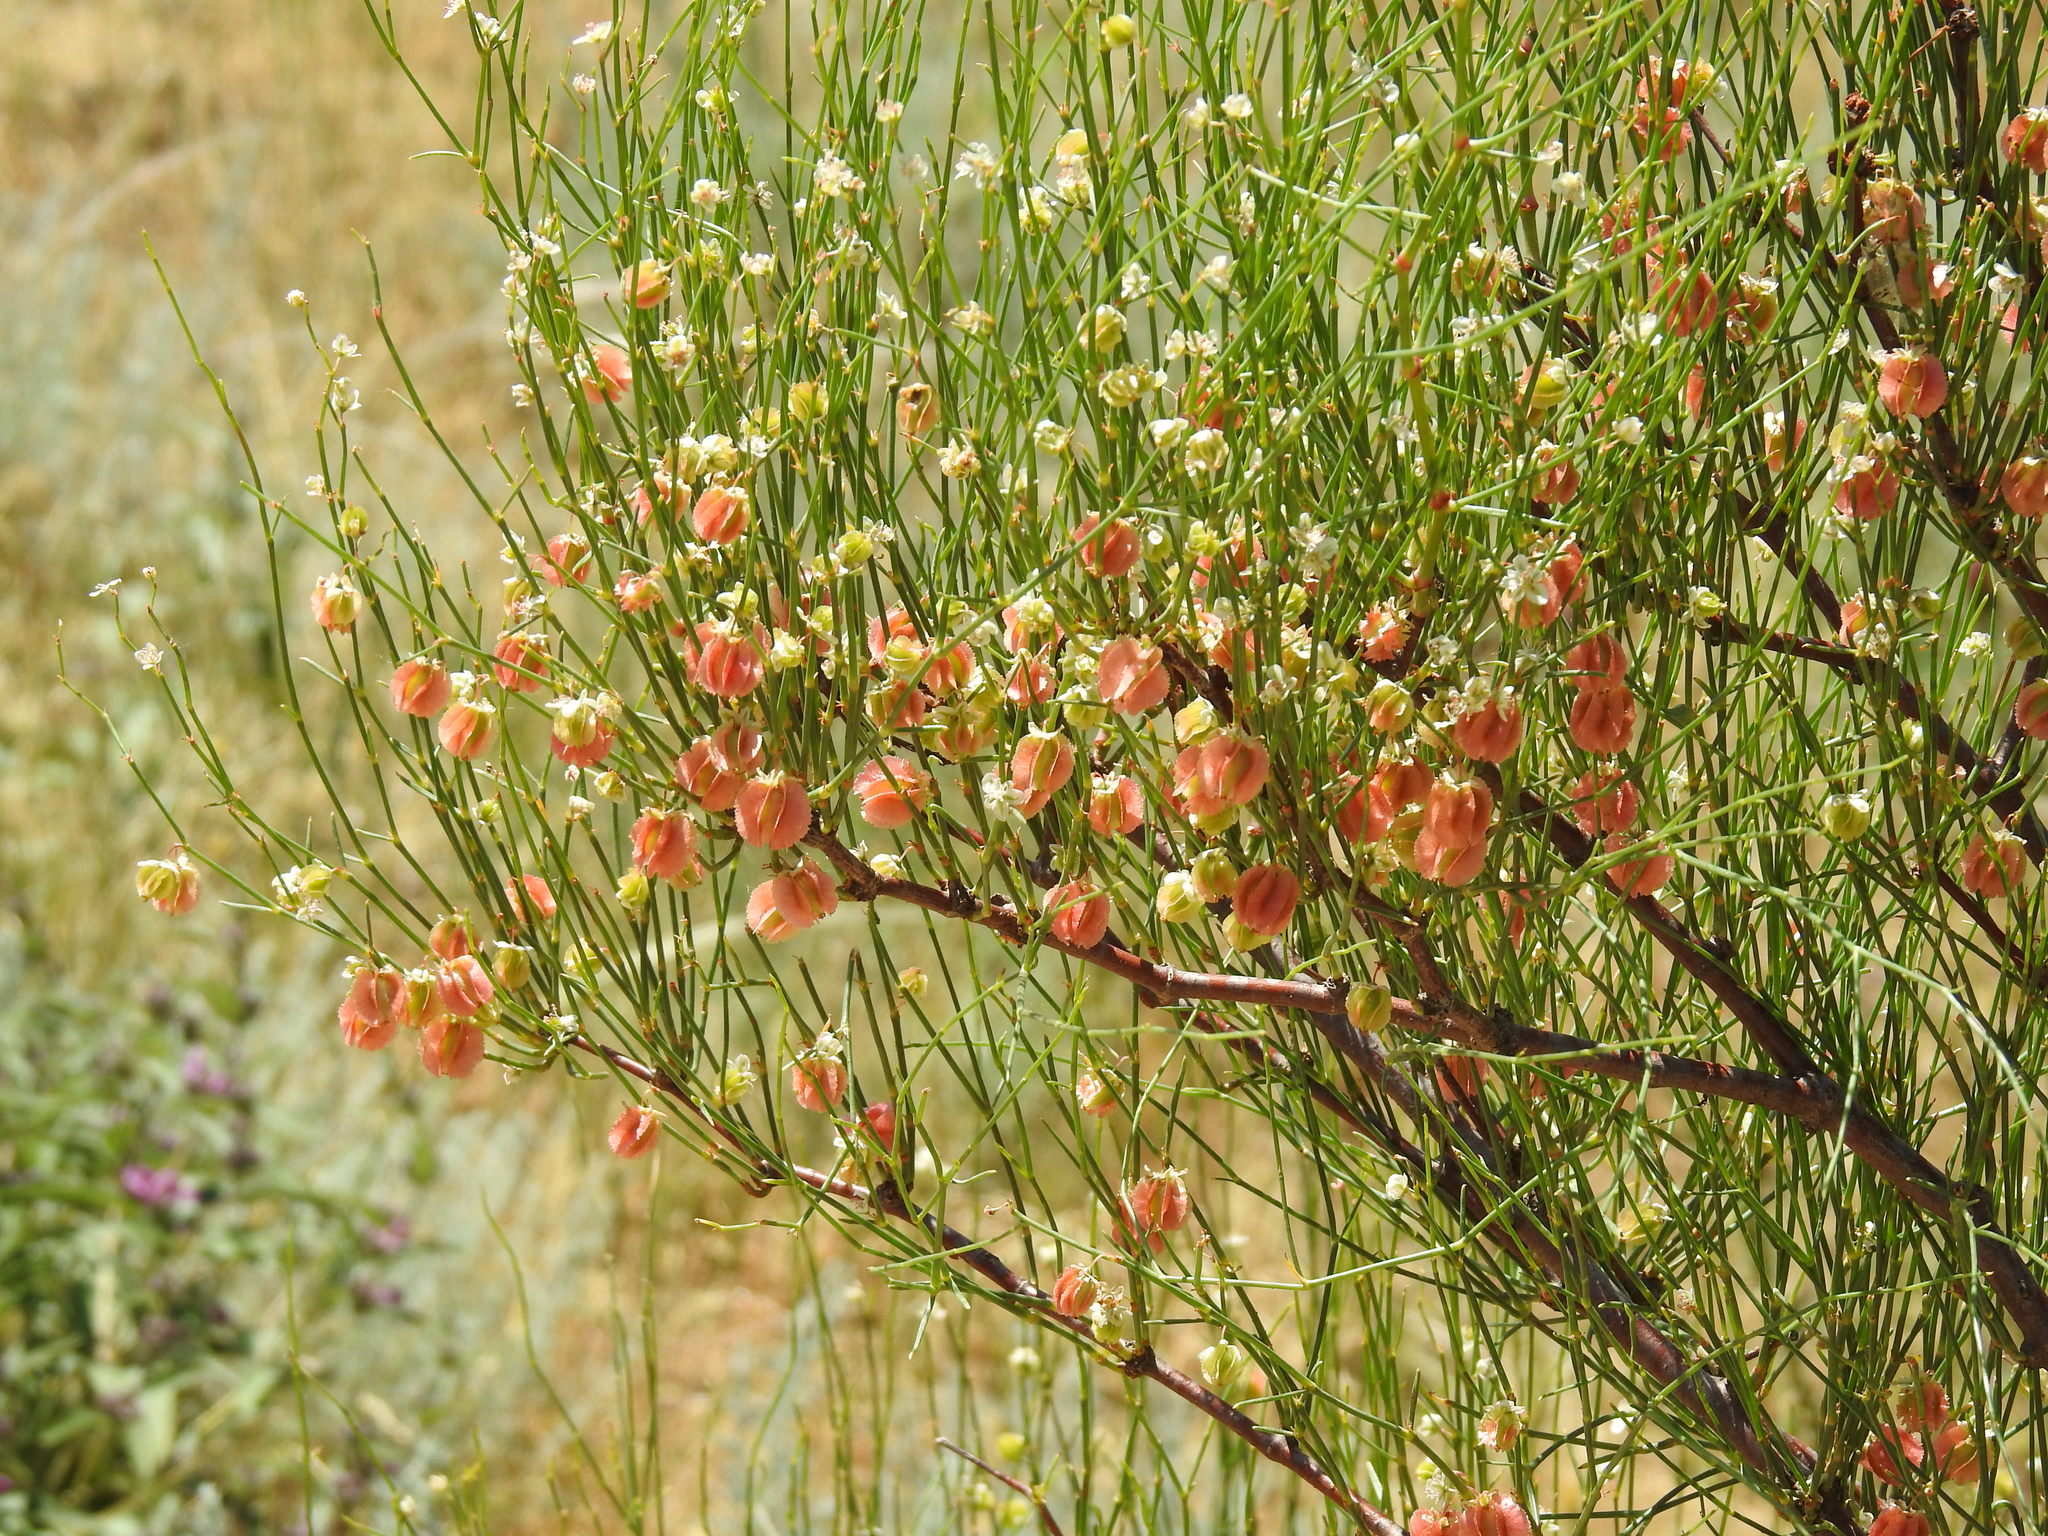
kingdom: Plantae
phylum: Tracheophyta
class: Magnoliopsida
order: Caryophyllales
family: Polygonaceae
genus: Calligonum
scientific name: Calligonum aphyllum
